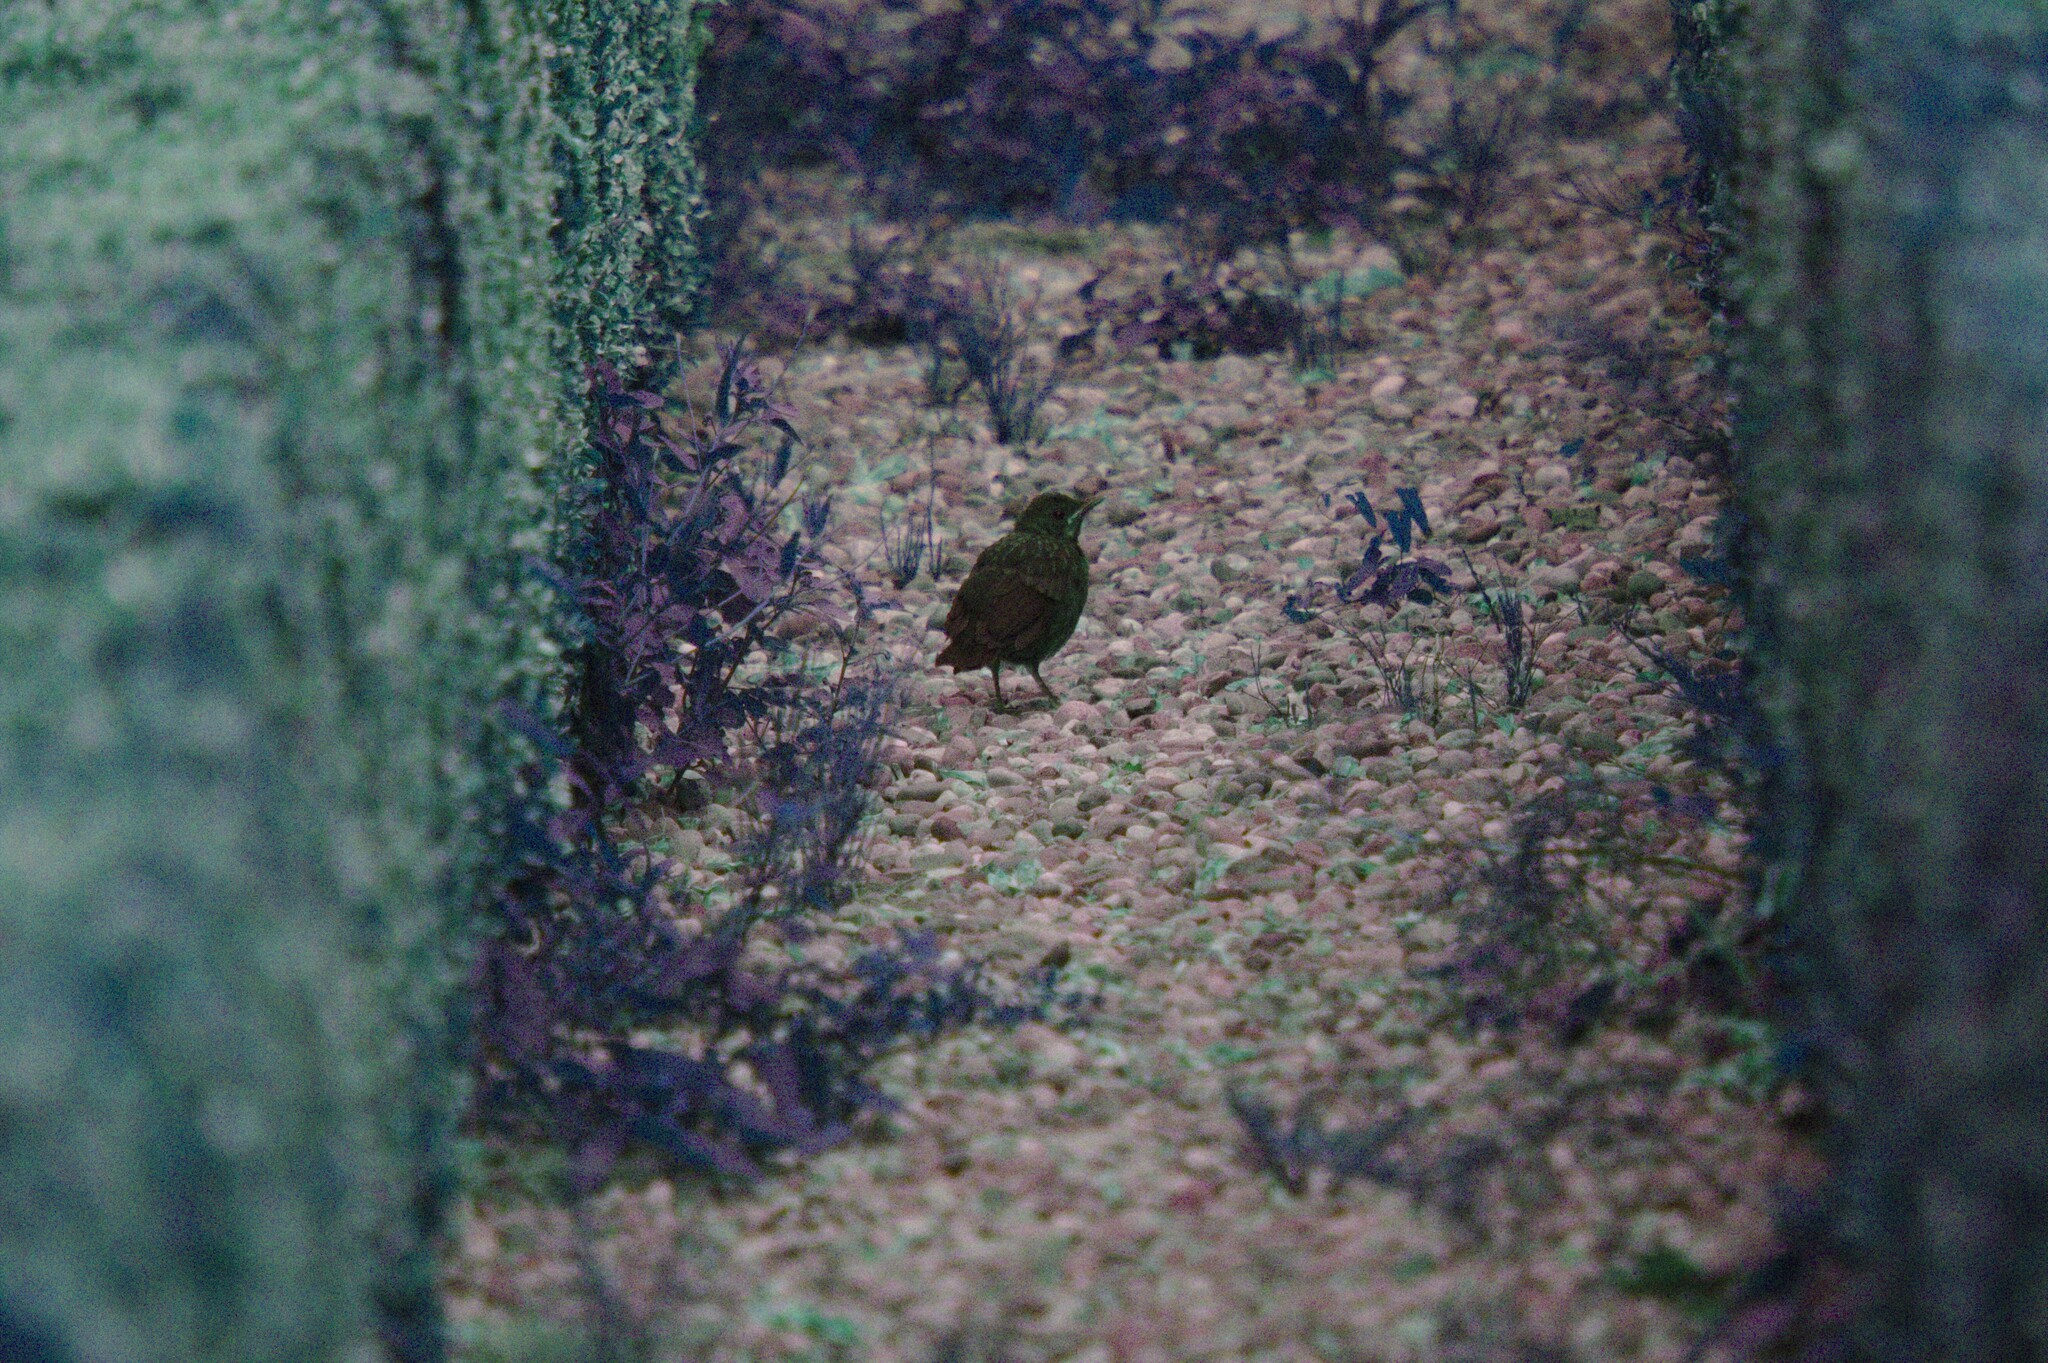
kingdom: Animalia
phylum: Chordata
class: Aves
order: Passeriformes
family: Turdidae
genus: Turdus
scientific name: Turdus merula
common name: Common blackbird
